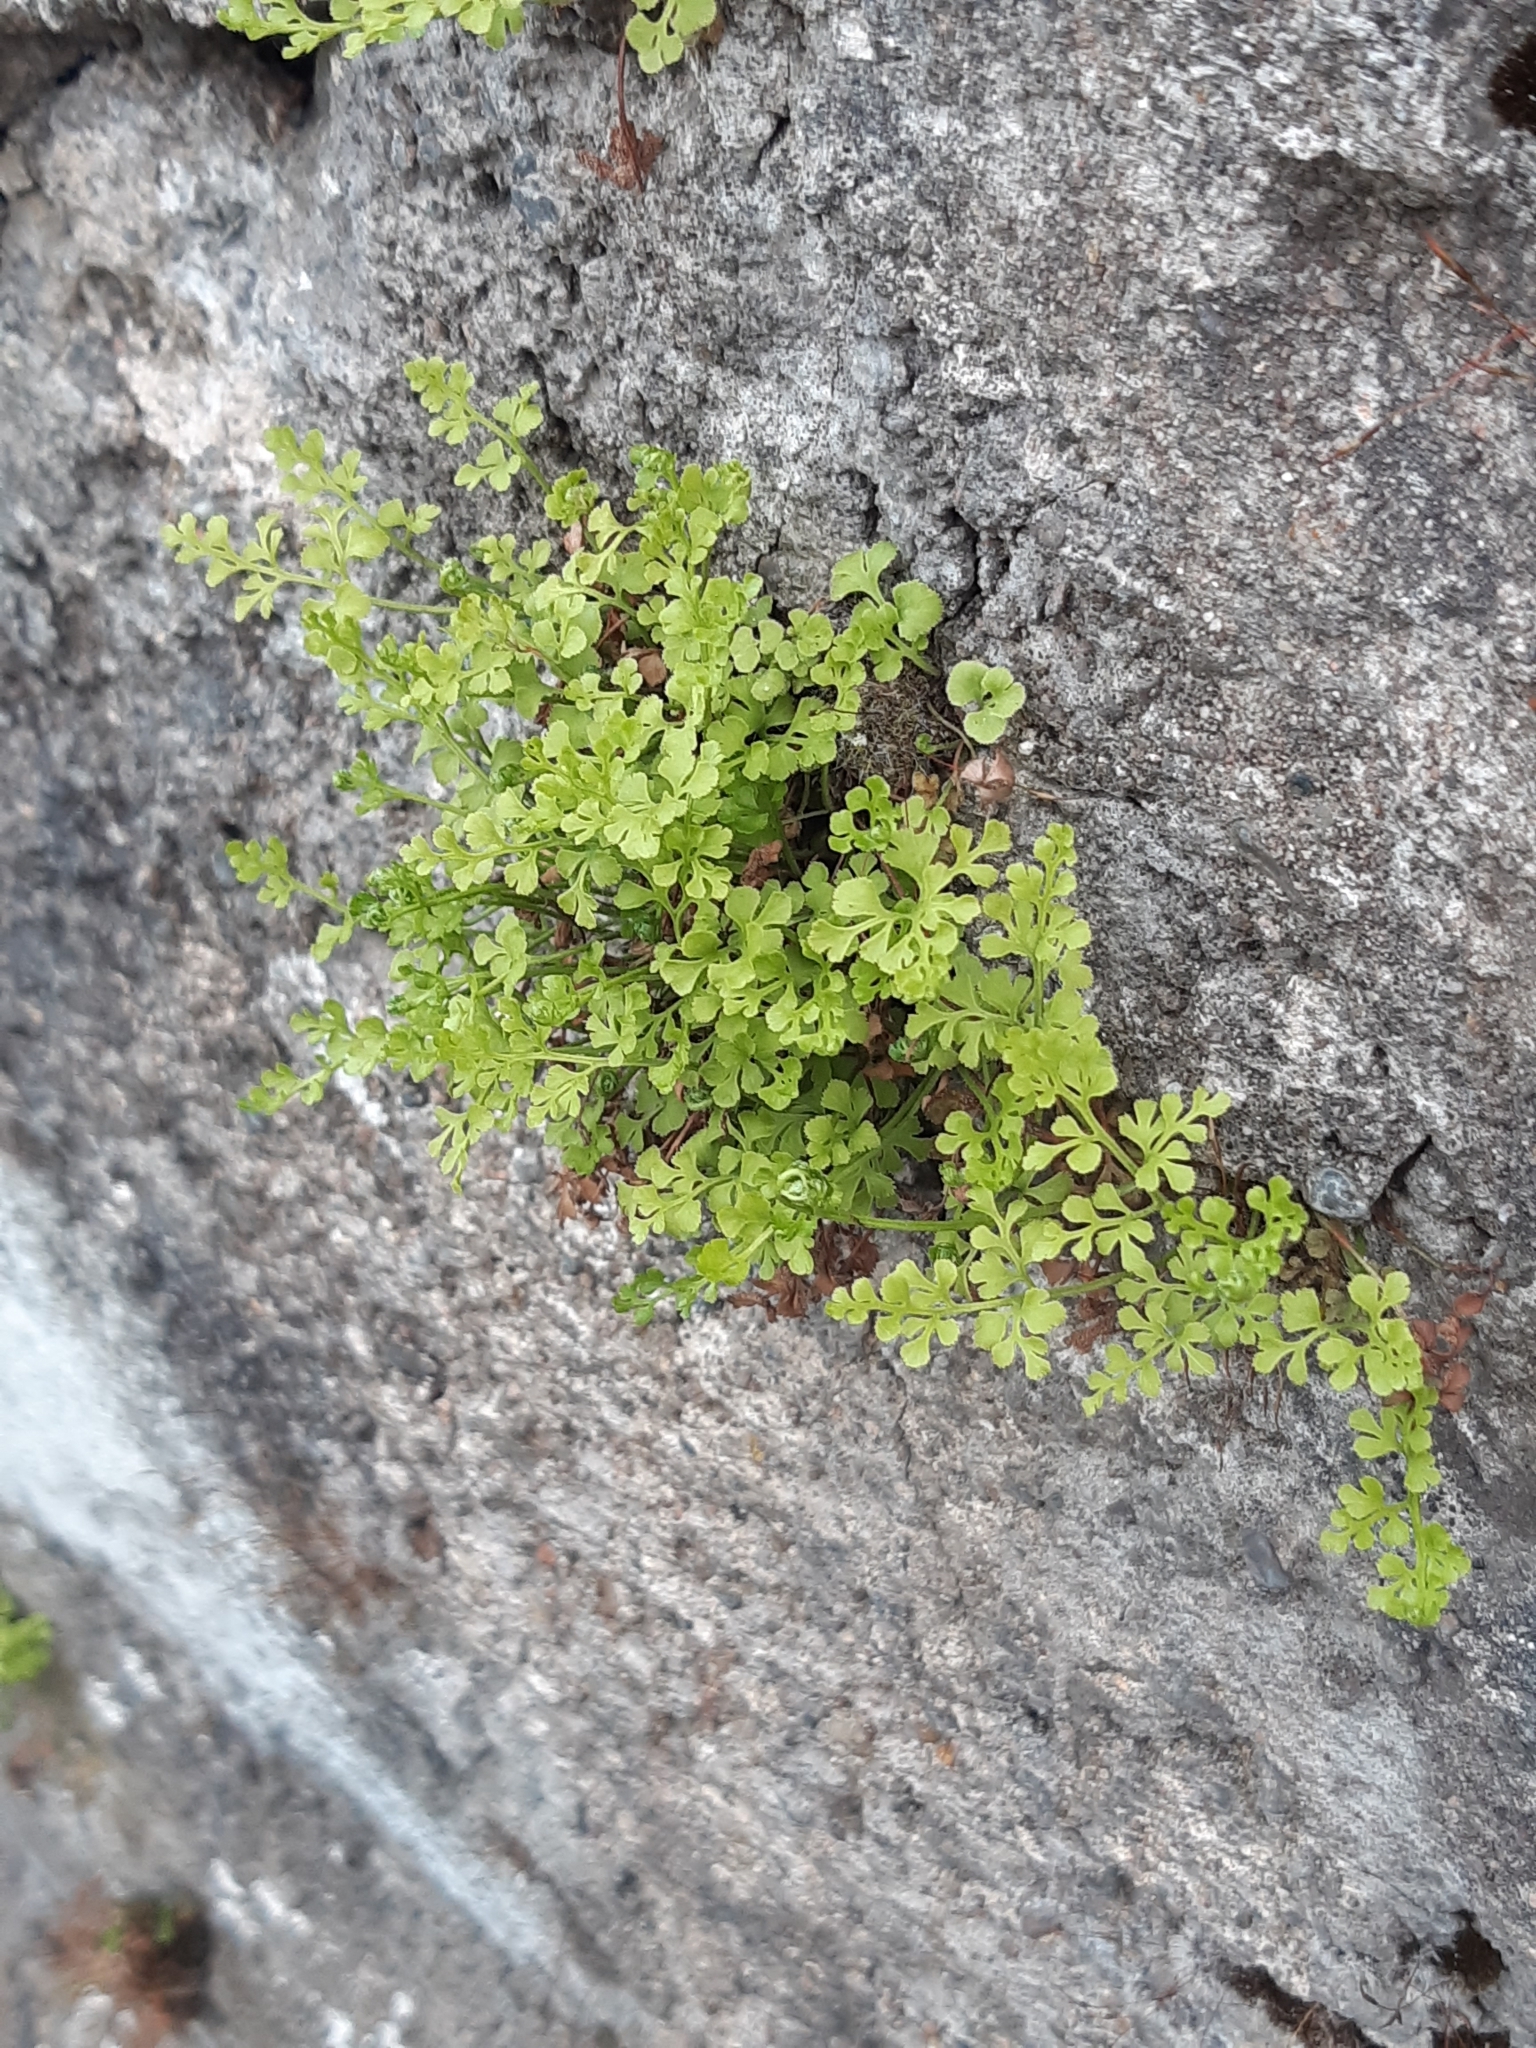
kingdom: Plantae
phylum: Tracheophyta
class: Polypodiopsida
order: Polypodiales
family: Aspleniaceae
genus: Asplenium
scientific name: Asplenium ruta-muraria
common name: Wall-rue
